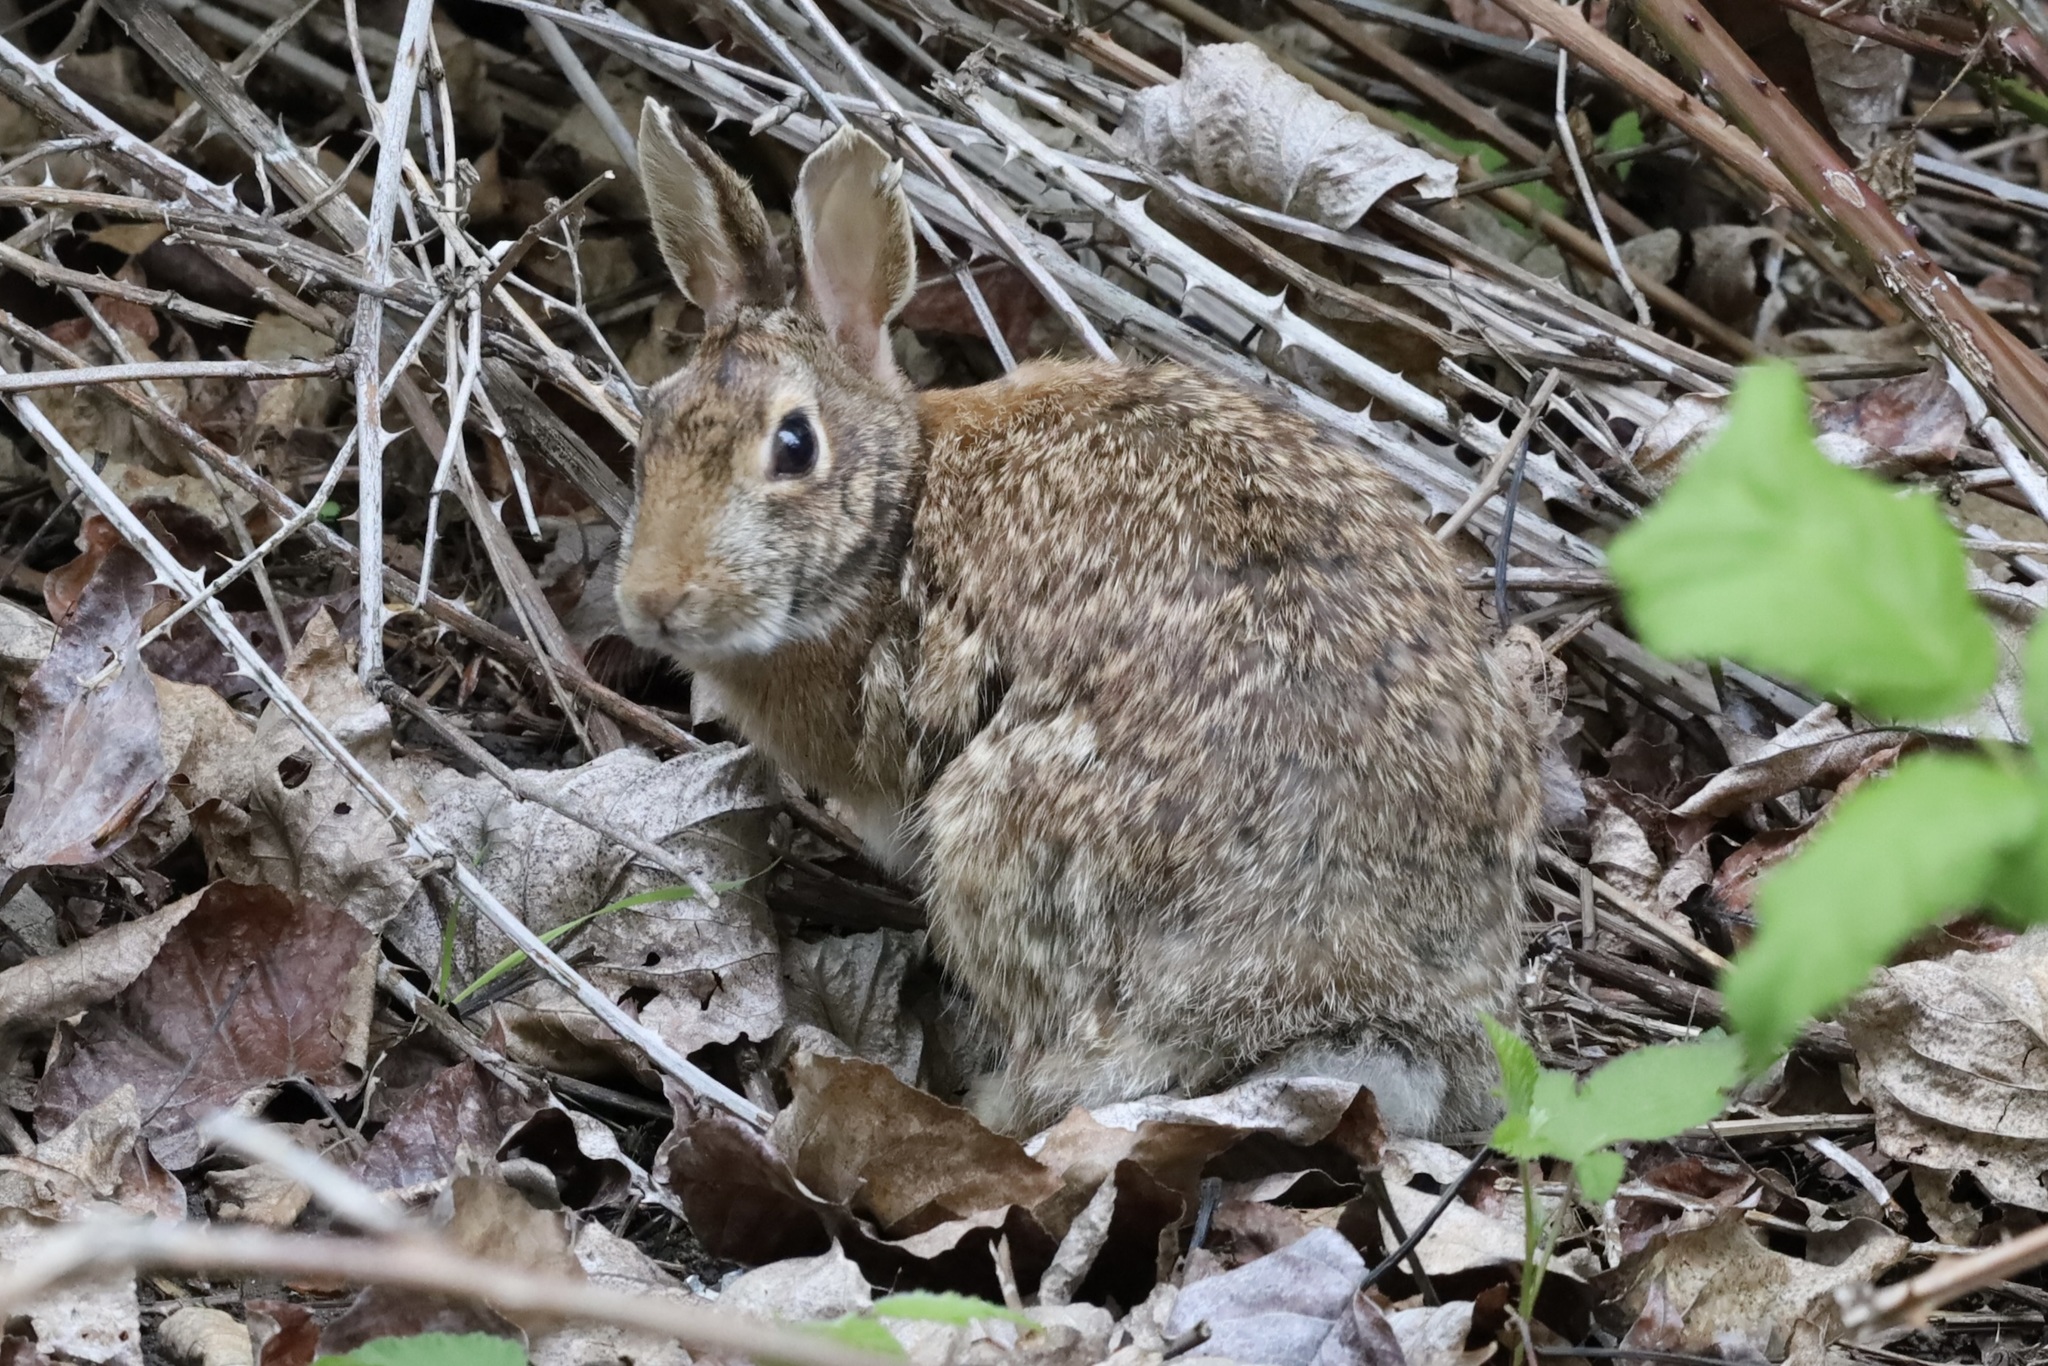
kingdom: Animalia
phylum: Chordata
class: Mammalia
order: Lagomorpha
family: Leporidae
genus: Sylvilagus
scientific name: Sylvilagus floridanus
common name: Eastern cottontail
